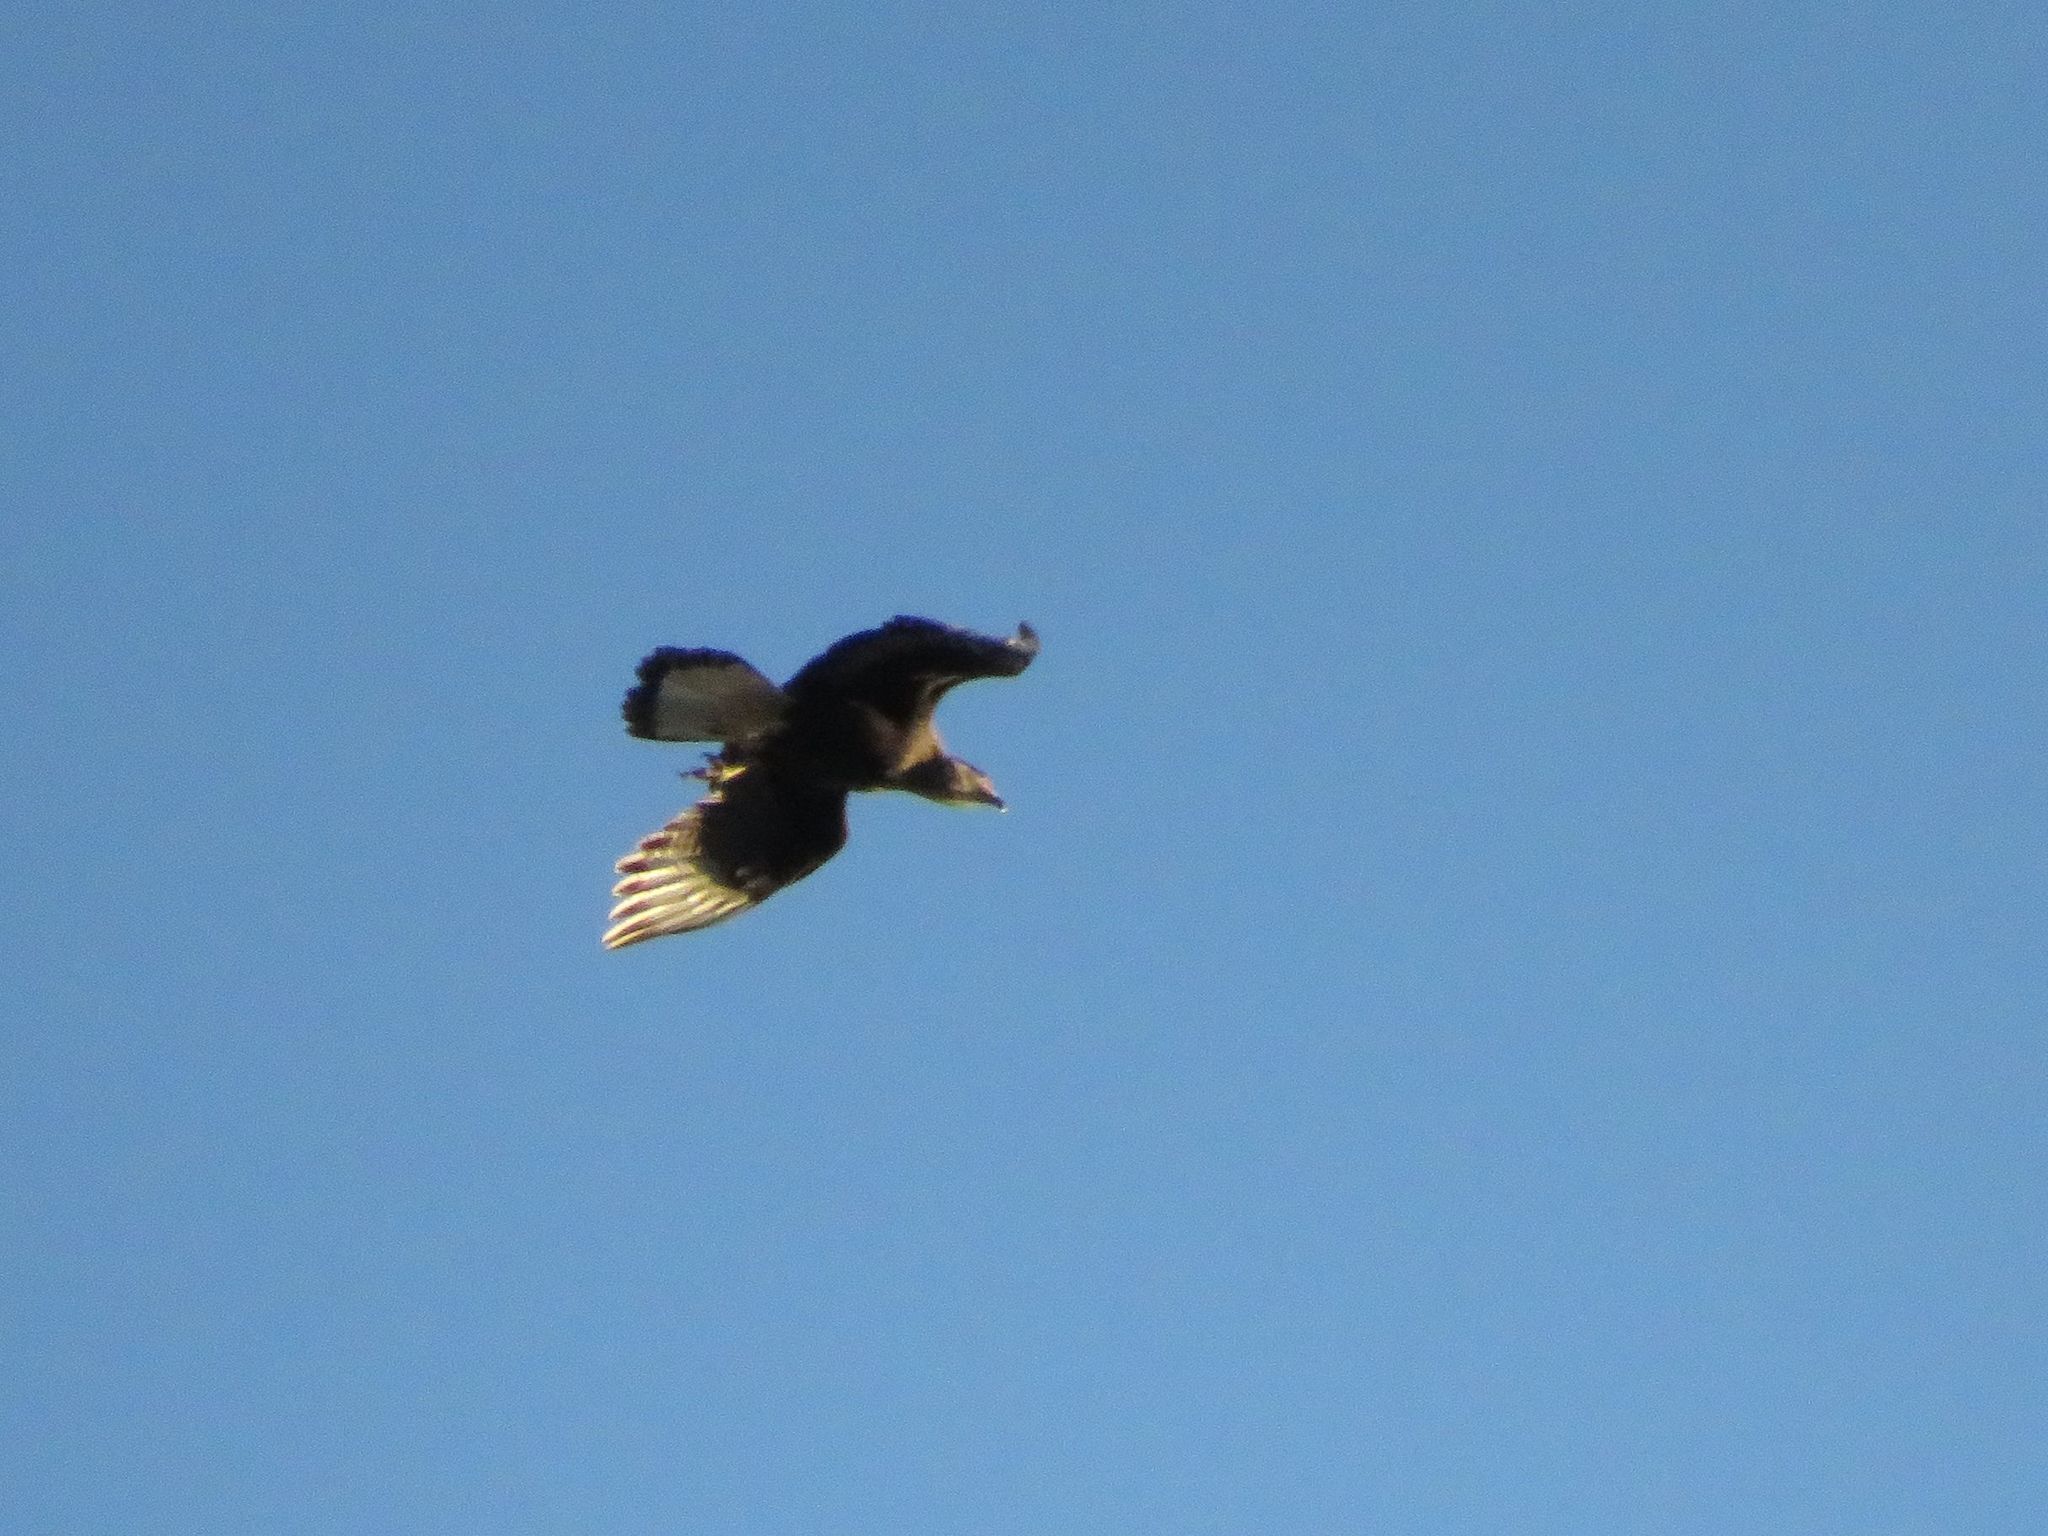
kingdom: Animalia
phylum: Chordata
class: Aves
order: Falconiformes
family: Falconidae
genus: Caracara
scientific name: Caracara plancus
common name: Southern caracara
